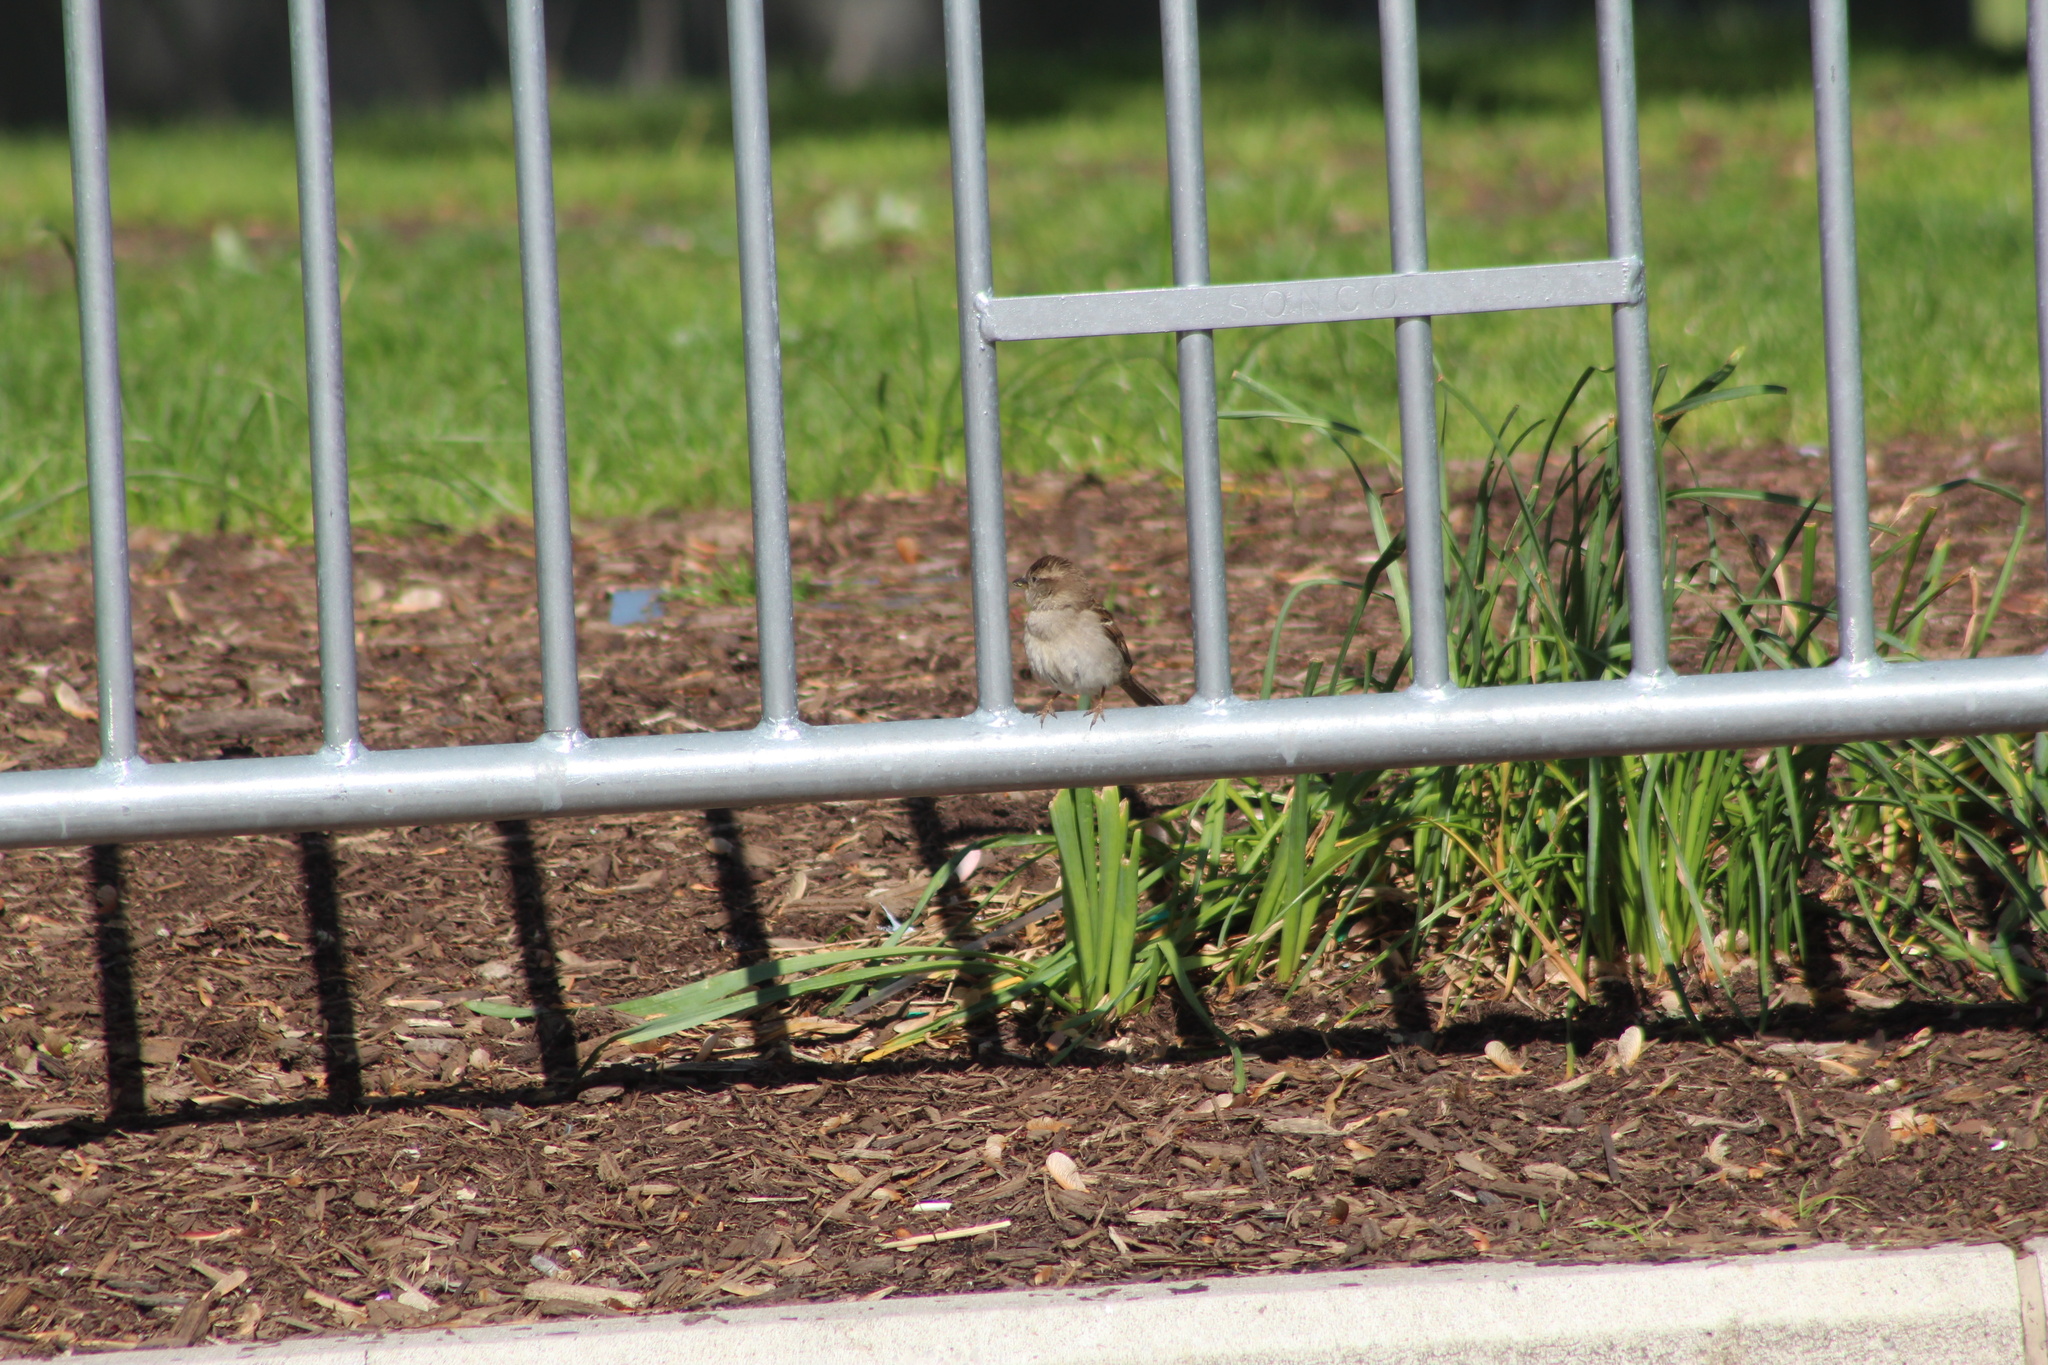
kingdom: Animalia
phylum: Chordata
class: Aves
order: Passeriformes
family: Passeridae
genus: Passer
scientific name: Passer domesticus
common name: House sparrow
